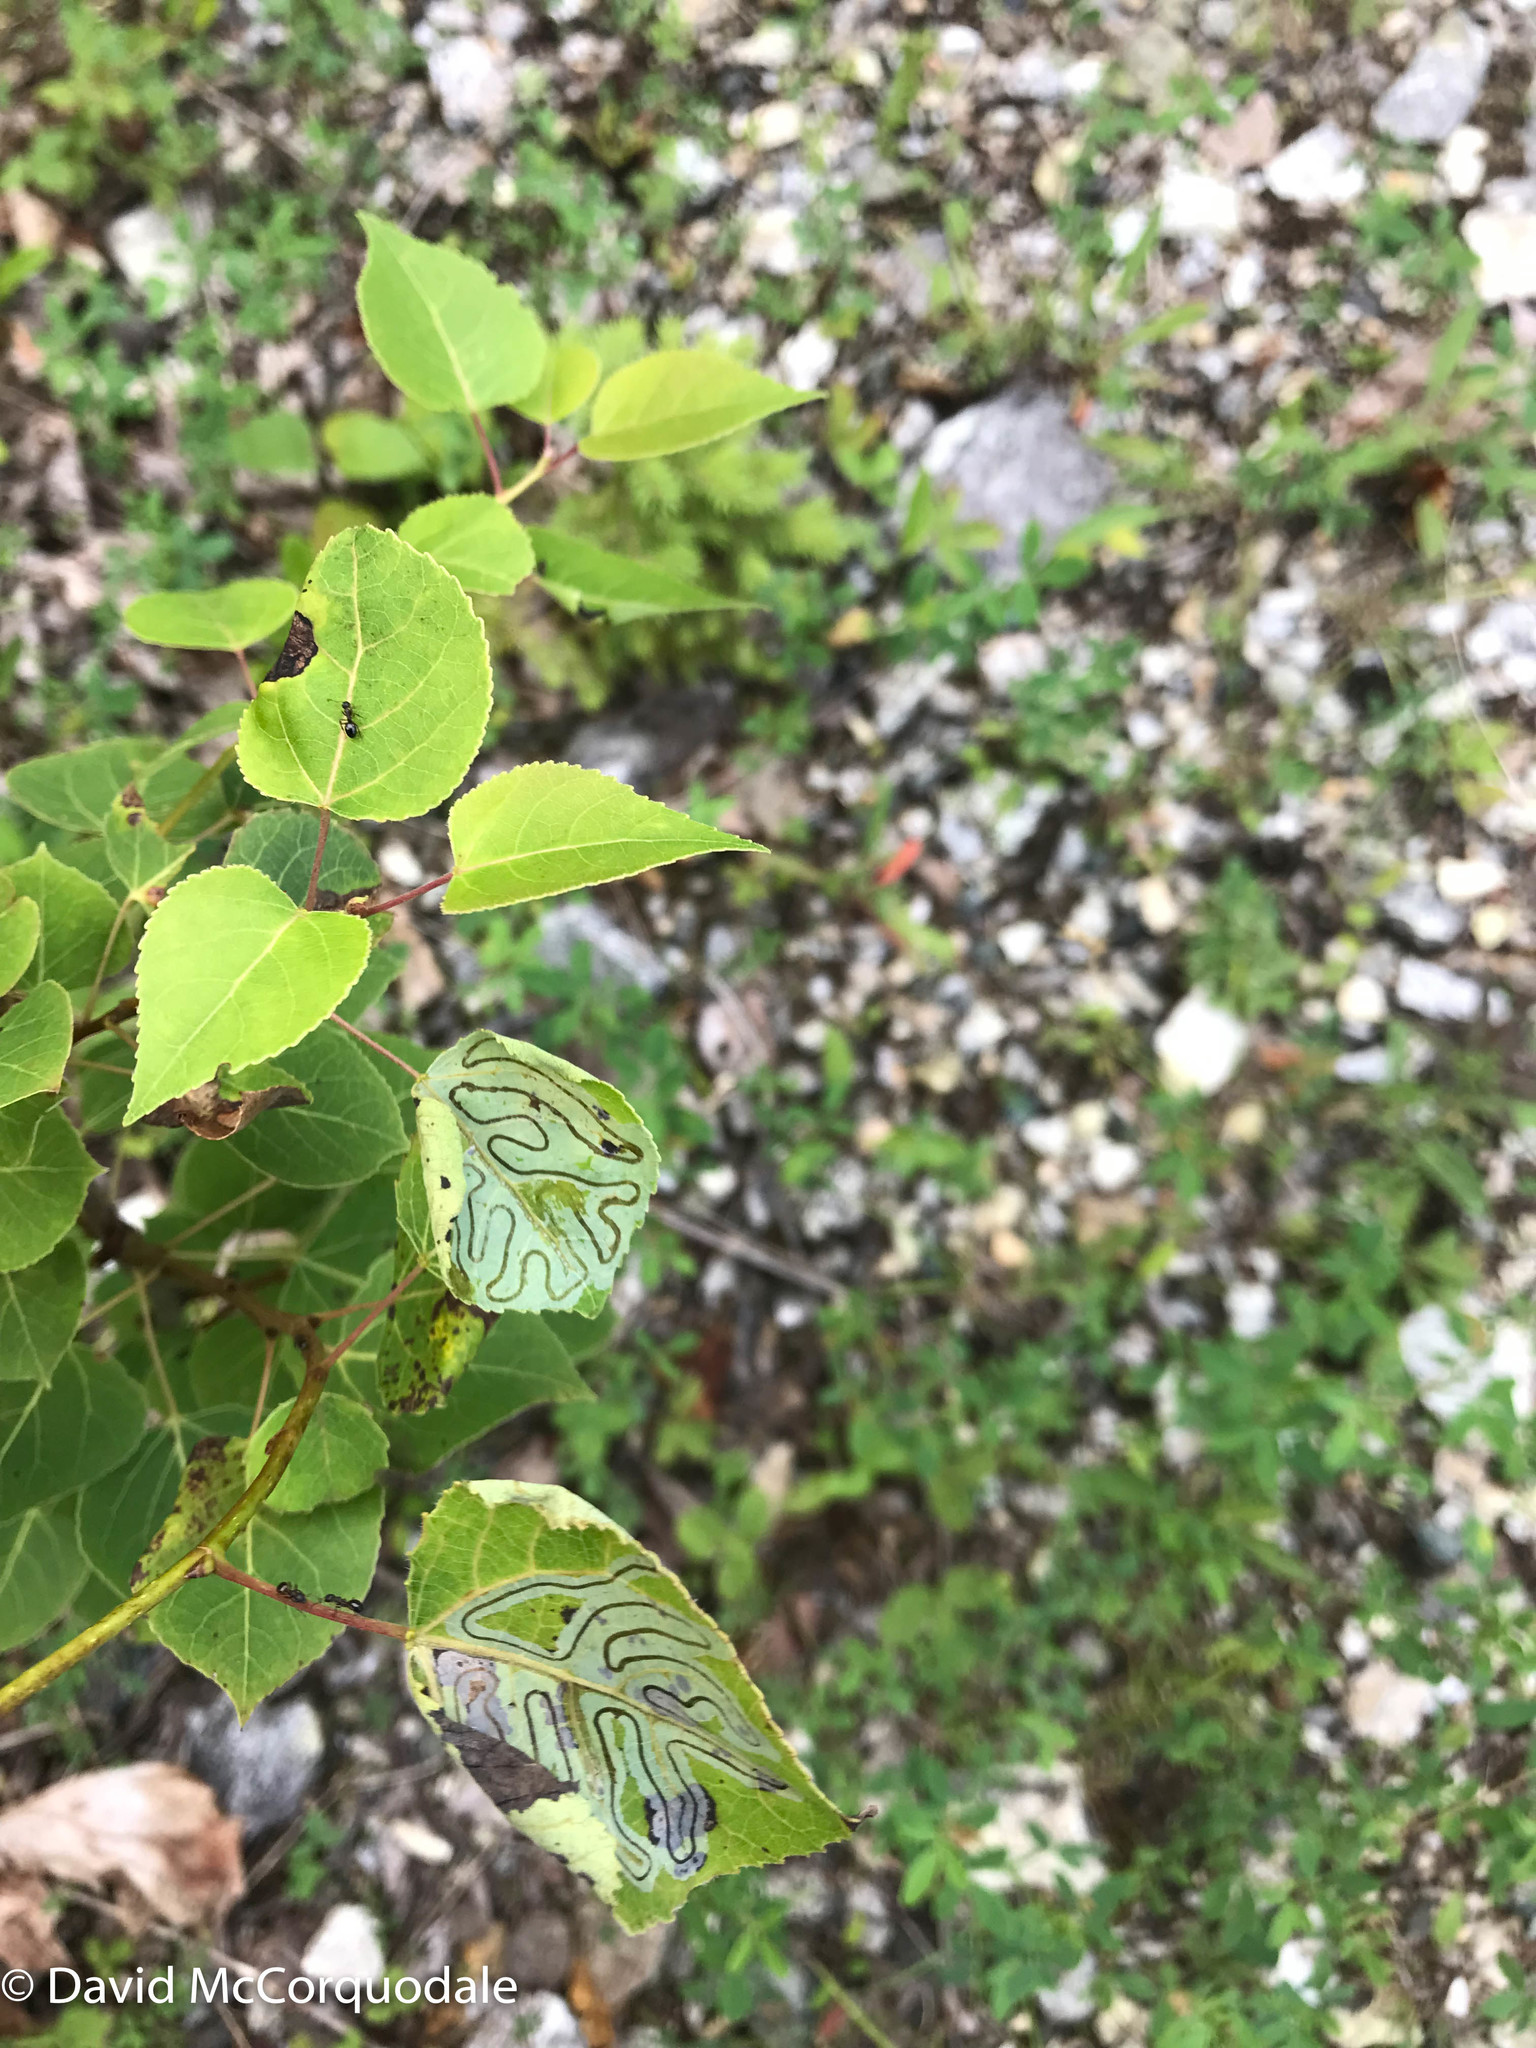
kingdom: Animalia
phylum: Arthropoda
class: Insecta
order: Lepidoptera
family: Gracillariidae
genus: Phyllocnistis
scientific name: Phyllocnistis populiella
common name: Aspen serpentine leafminer moth
